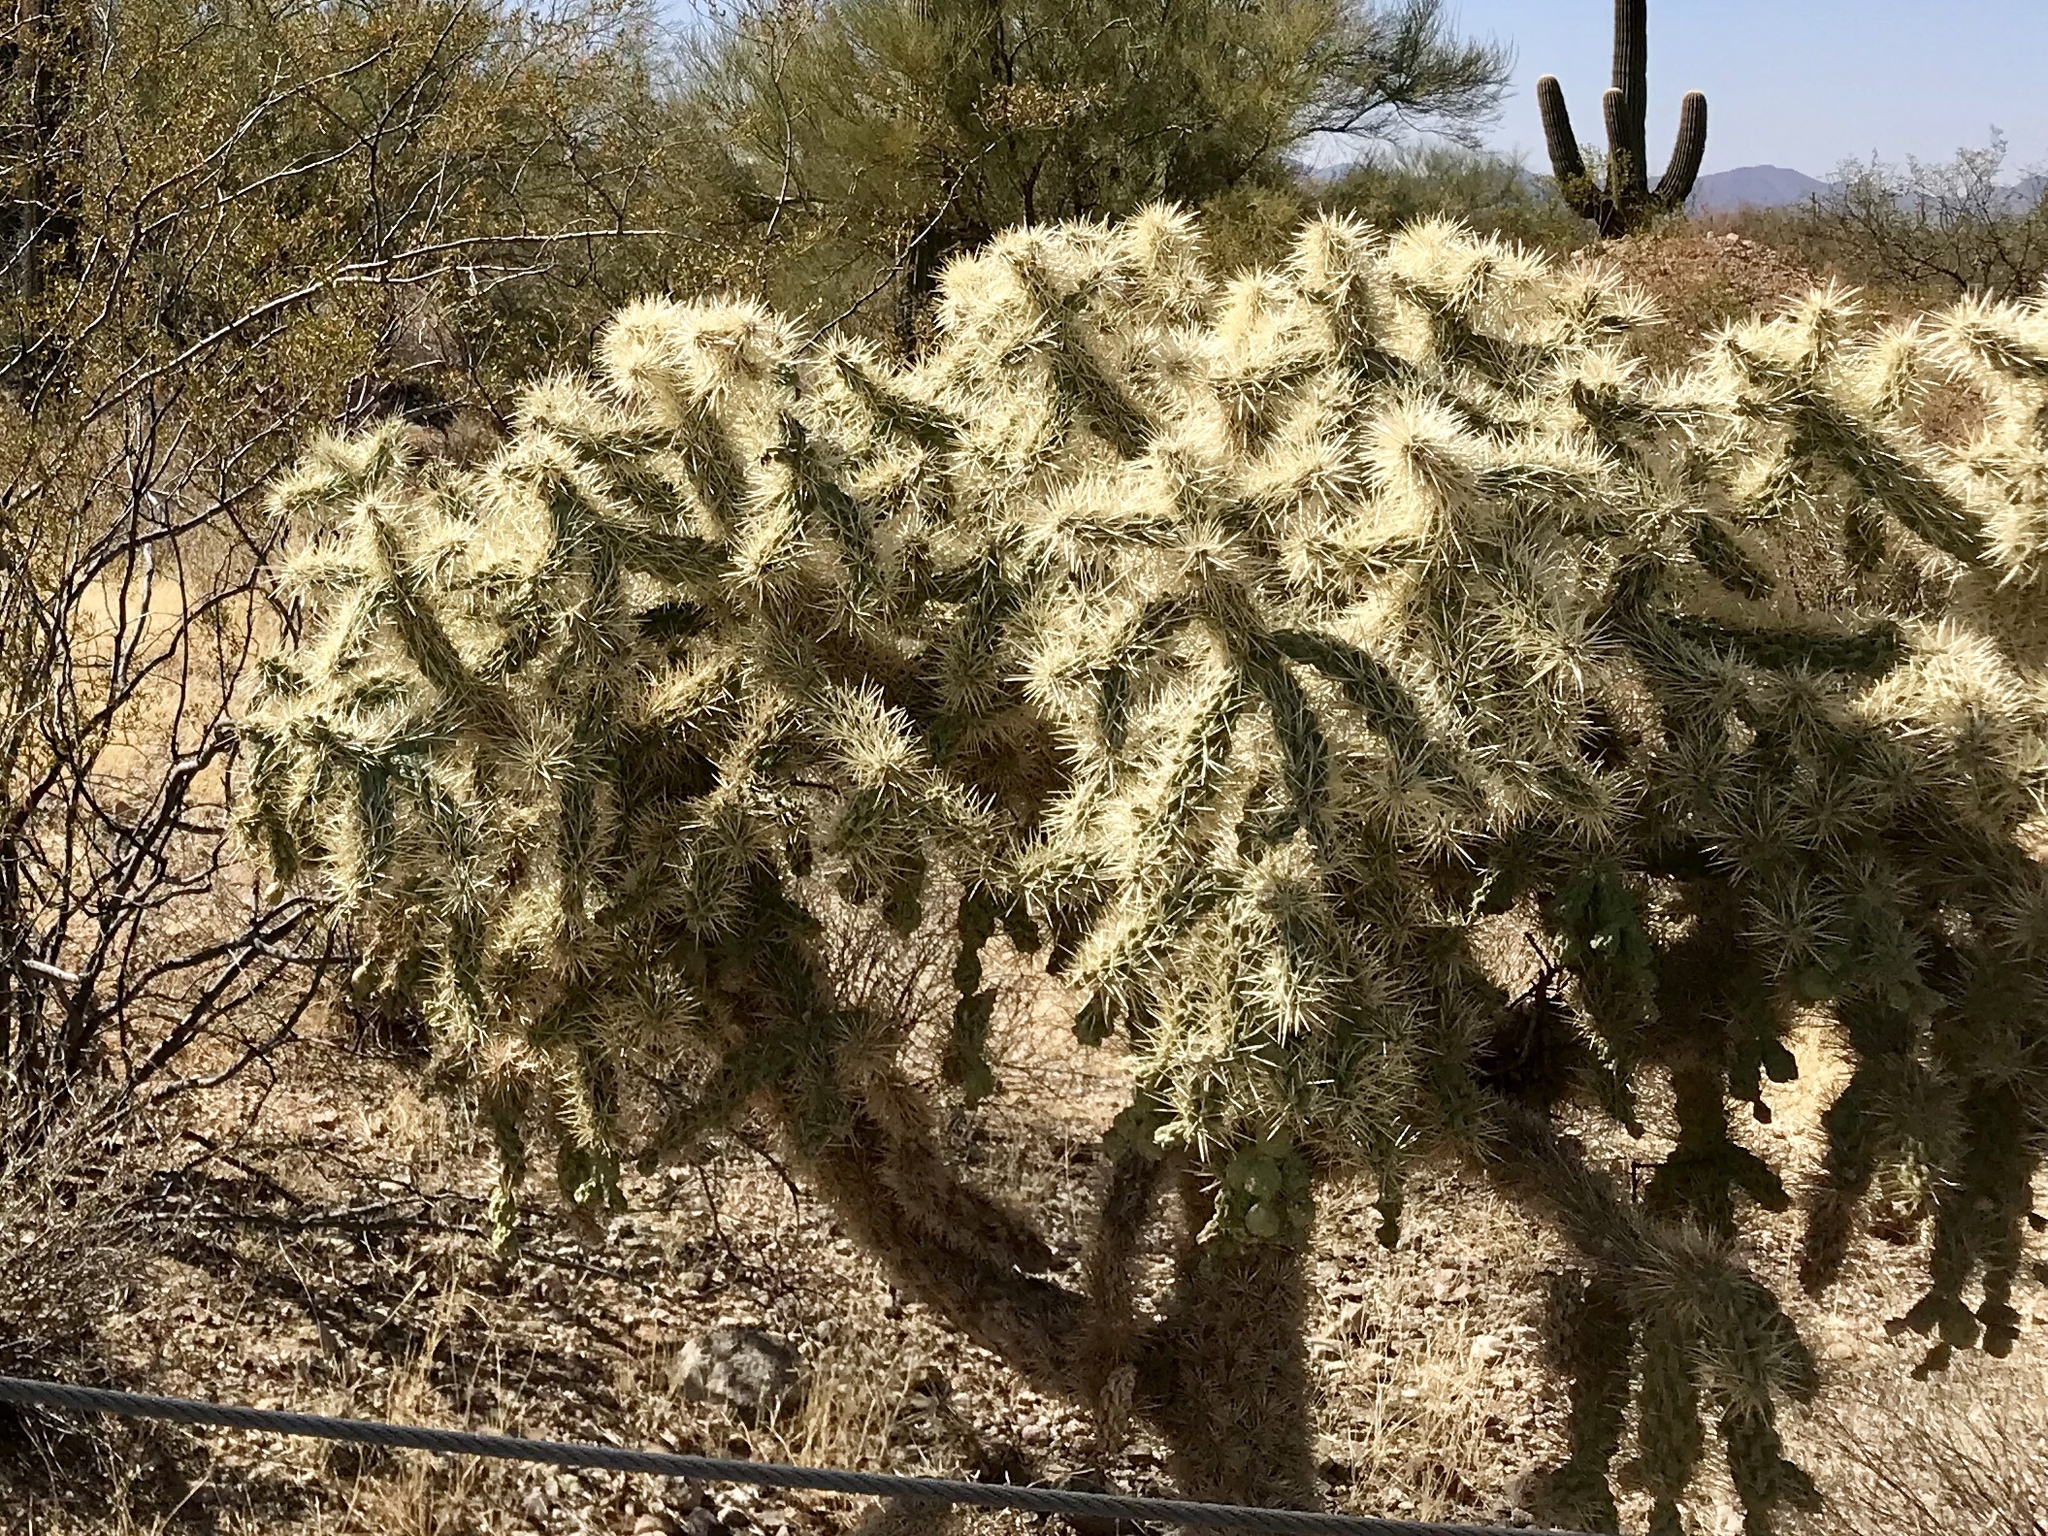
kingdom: Plantae
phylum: Tracheophyta
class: Magnoliopsida
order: Caryophyllales
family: Cactaceae
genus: Cylindropuntia
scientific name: Cylindropuntia fulgida
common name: Jumping cholla
